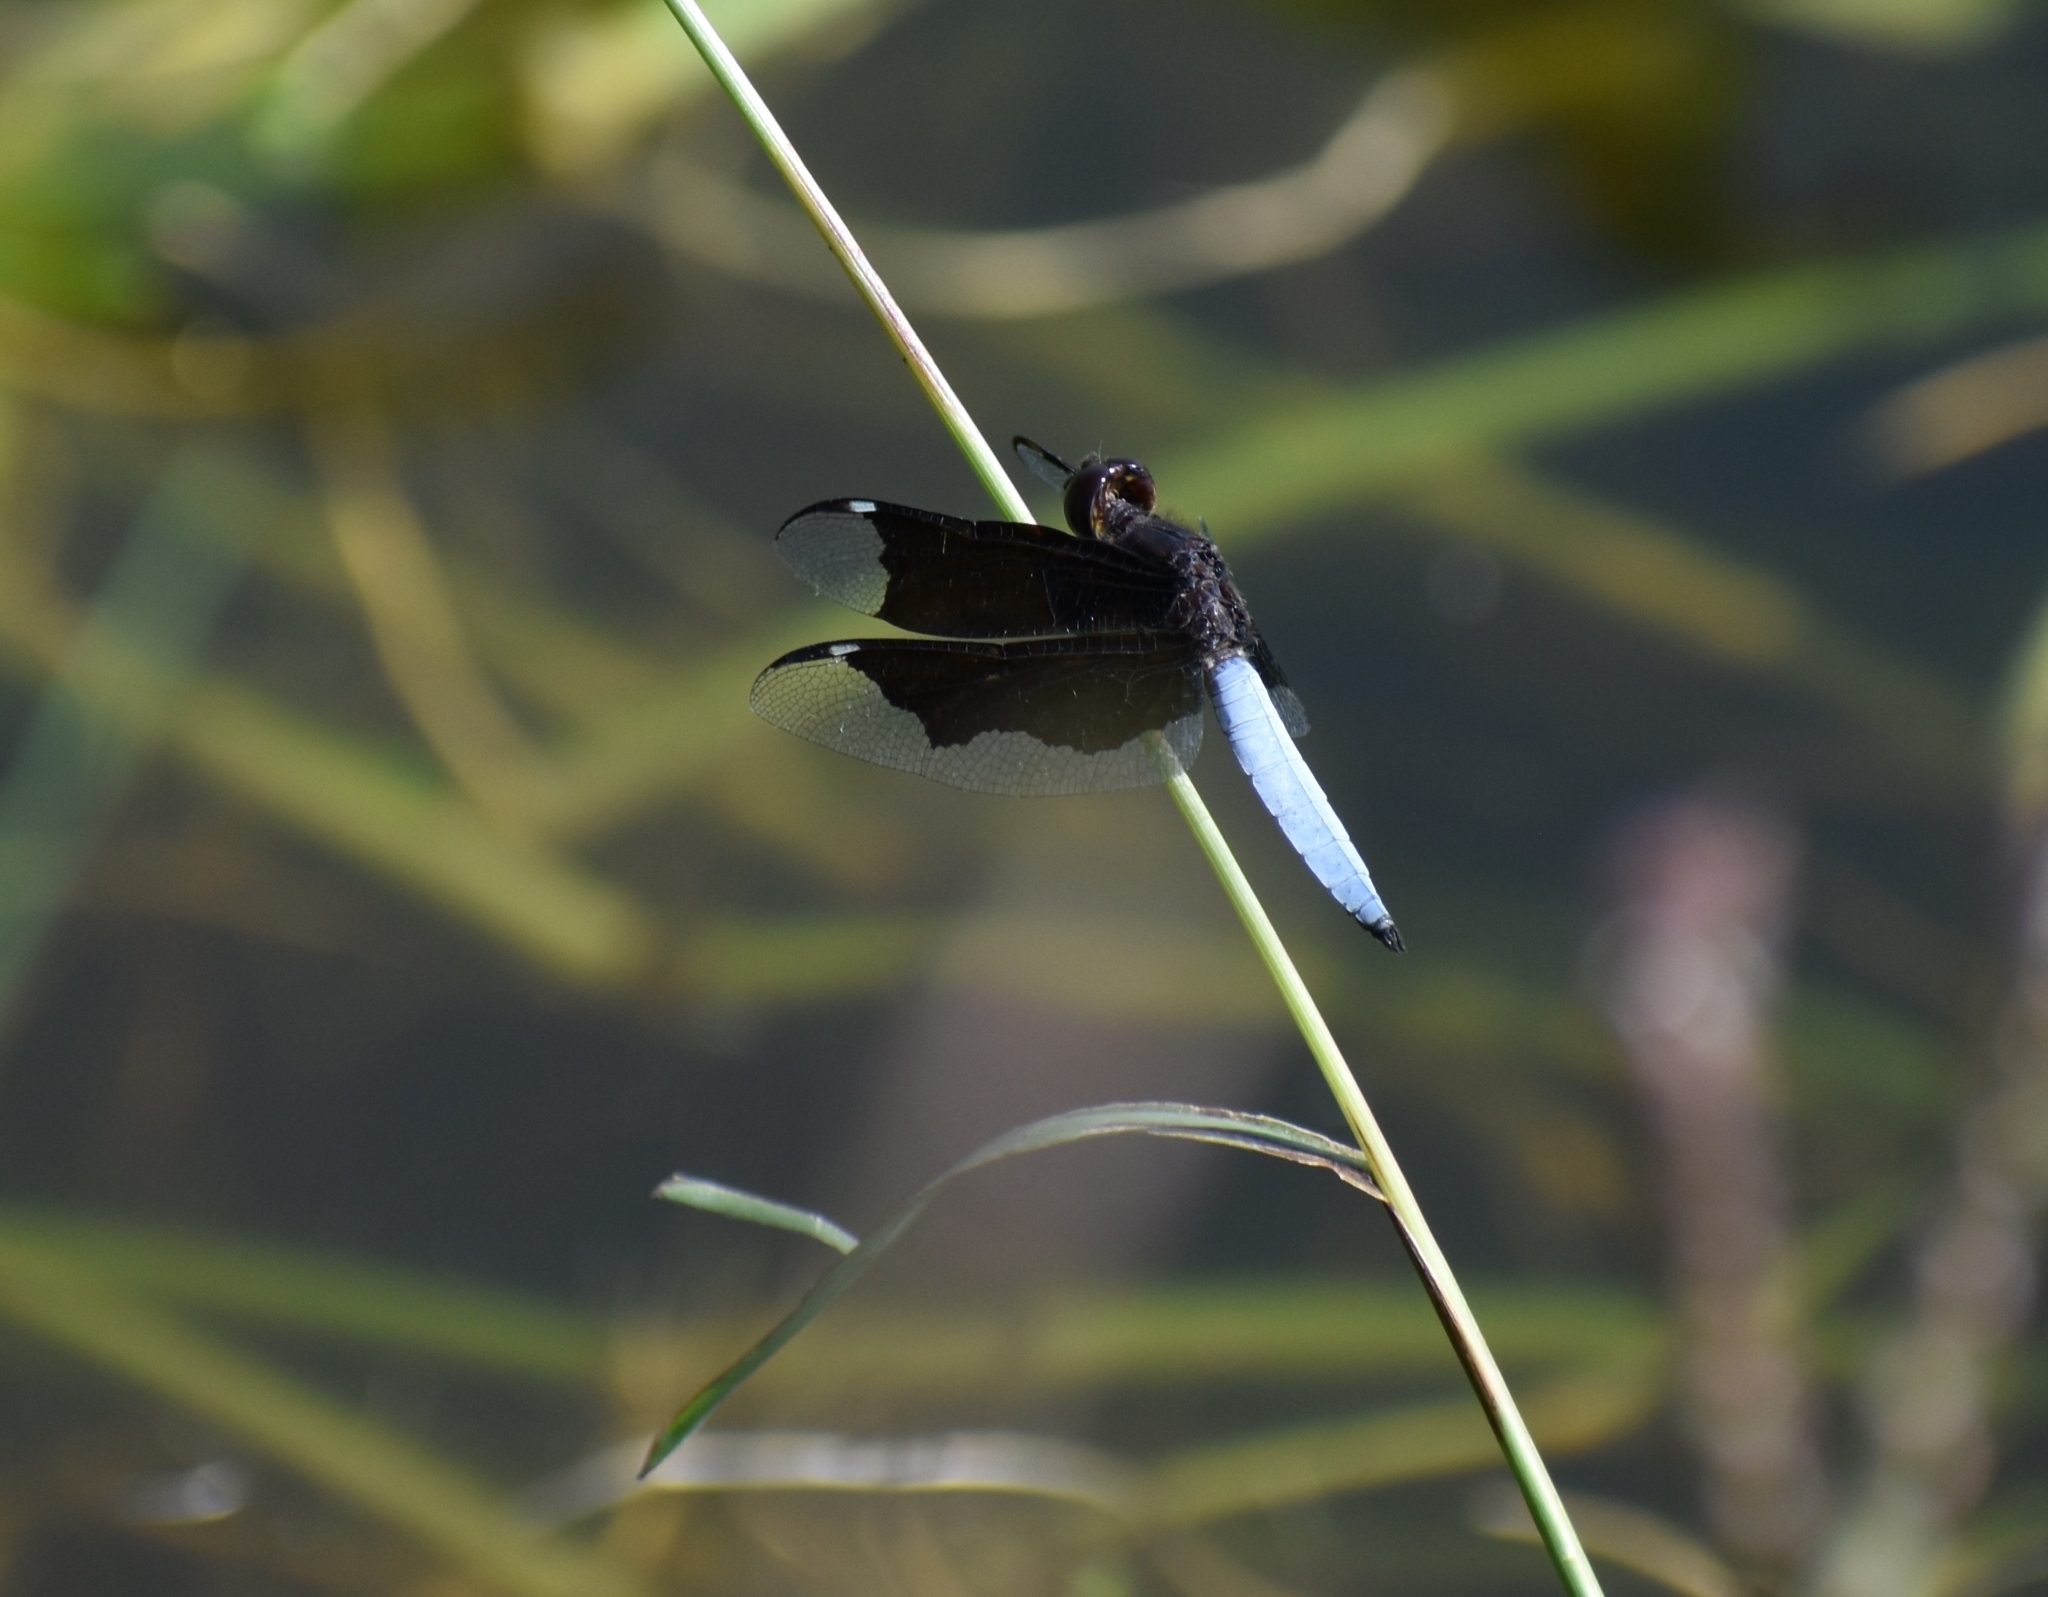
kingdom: Animalia
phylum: Arthropoda
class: Insecta
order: Odonata
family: Libellulidae
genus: Palpopleura
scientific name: Palpopleura lucia
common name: Lucia widow
